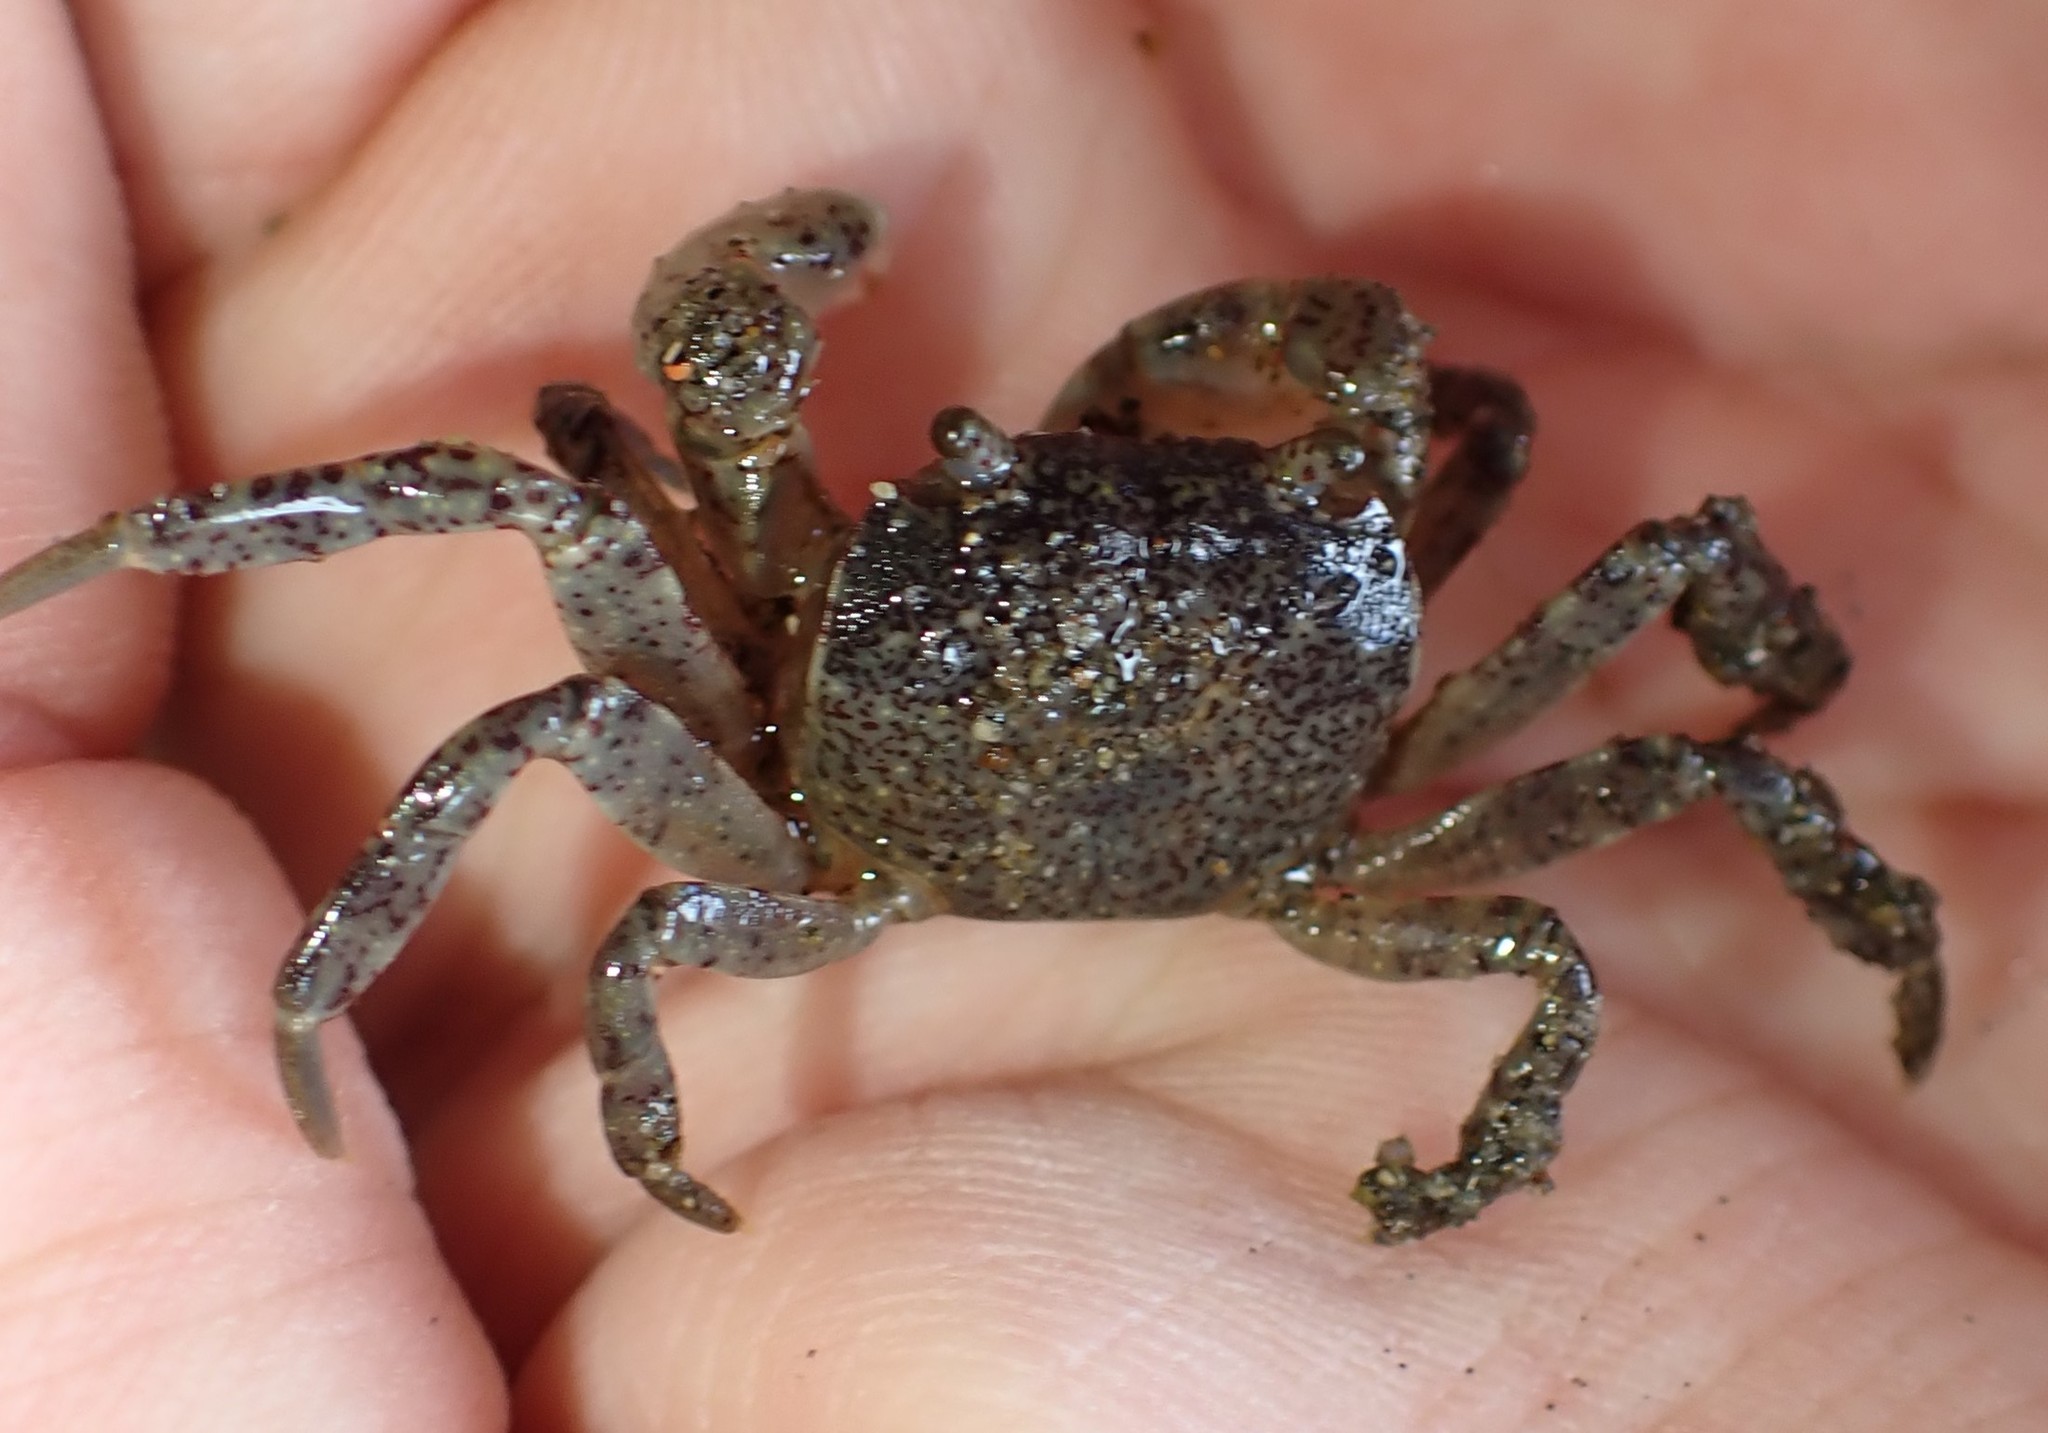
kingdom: Animalia
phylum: Arthropoda
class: Malacostraca
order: Decapoda
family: Varunidae
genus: Cyclograpsus
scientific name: Cyclograpsus lavauxi
